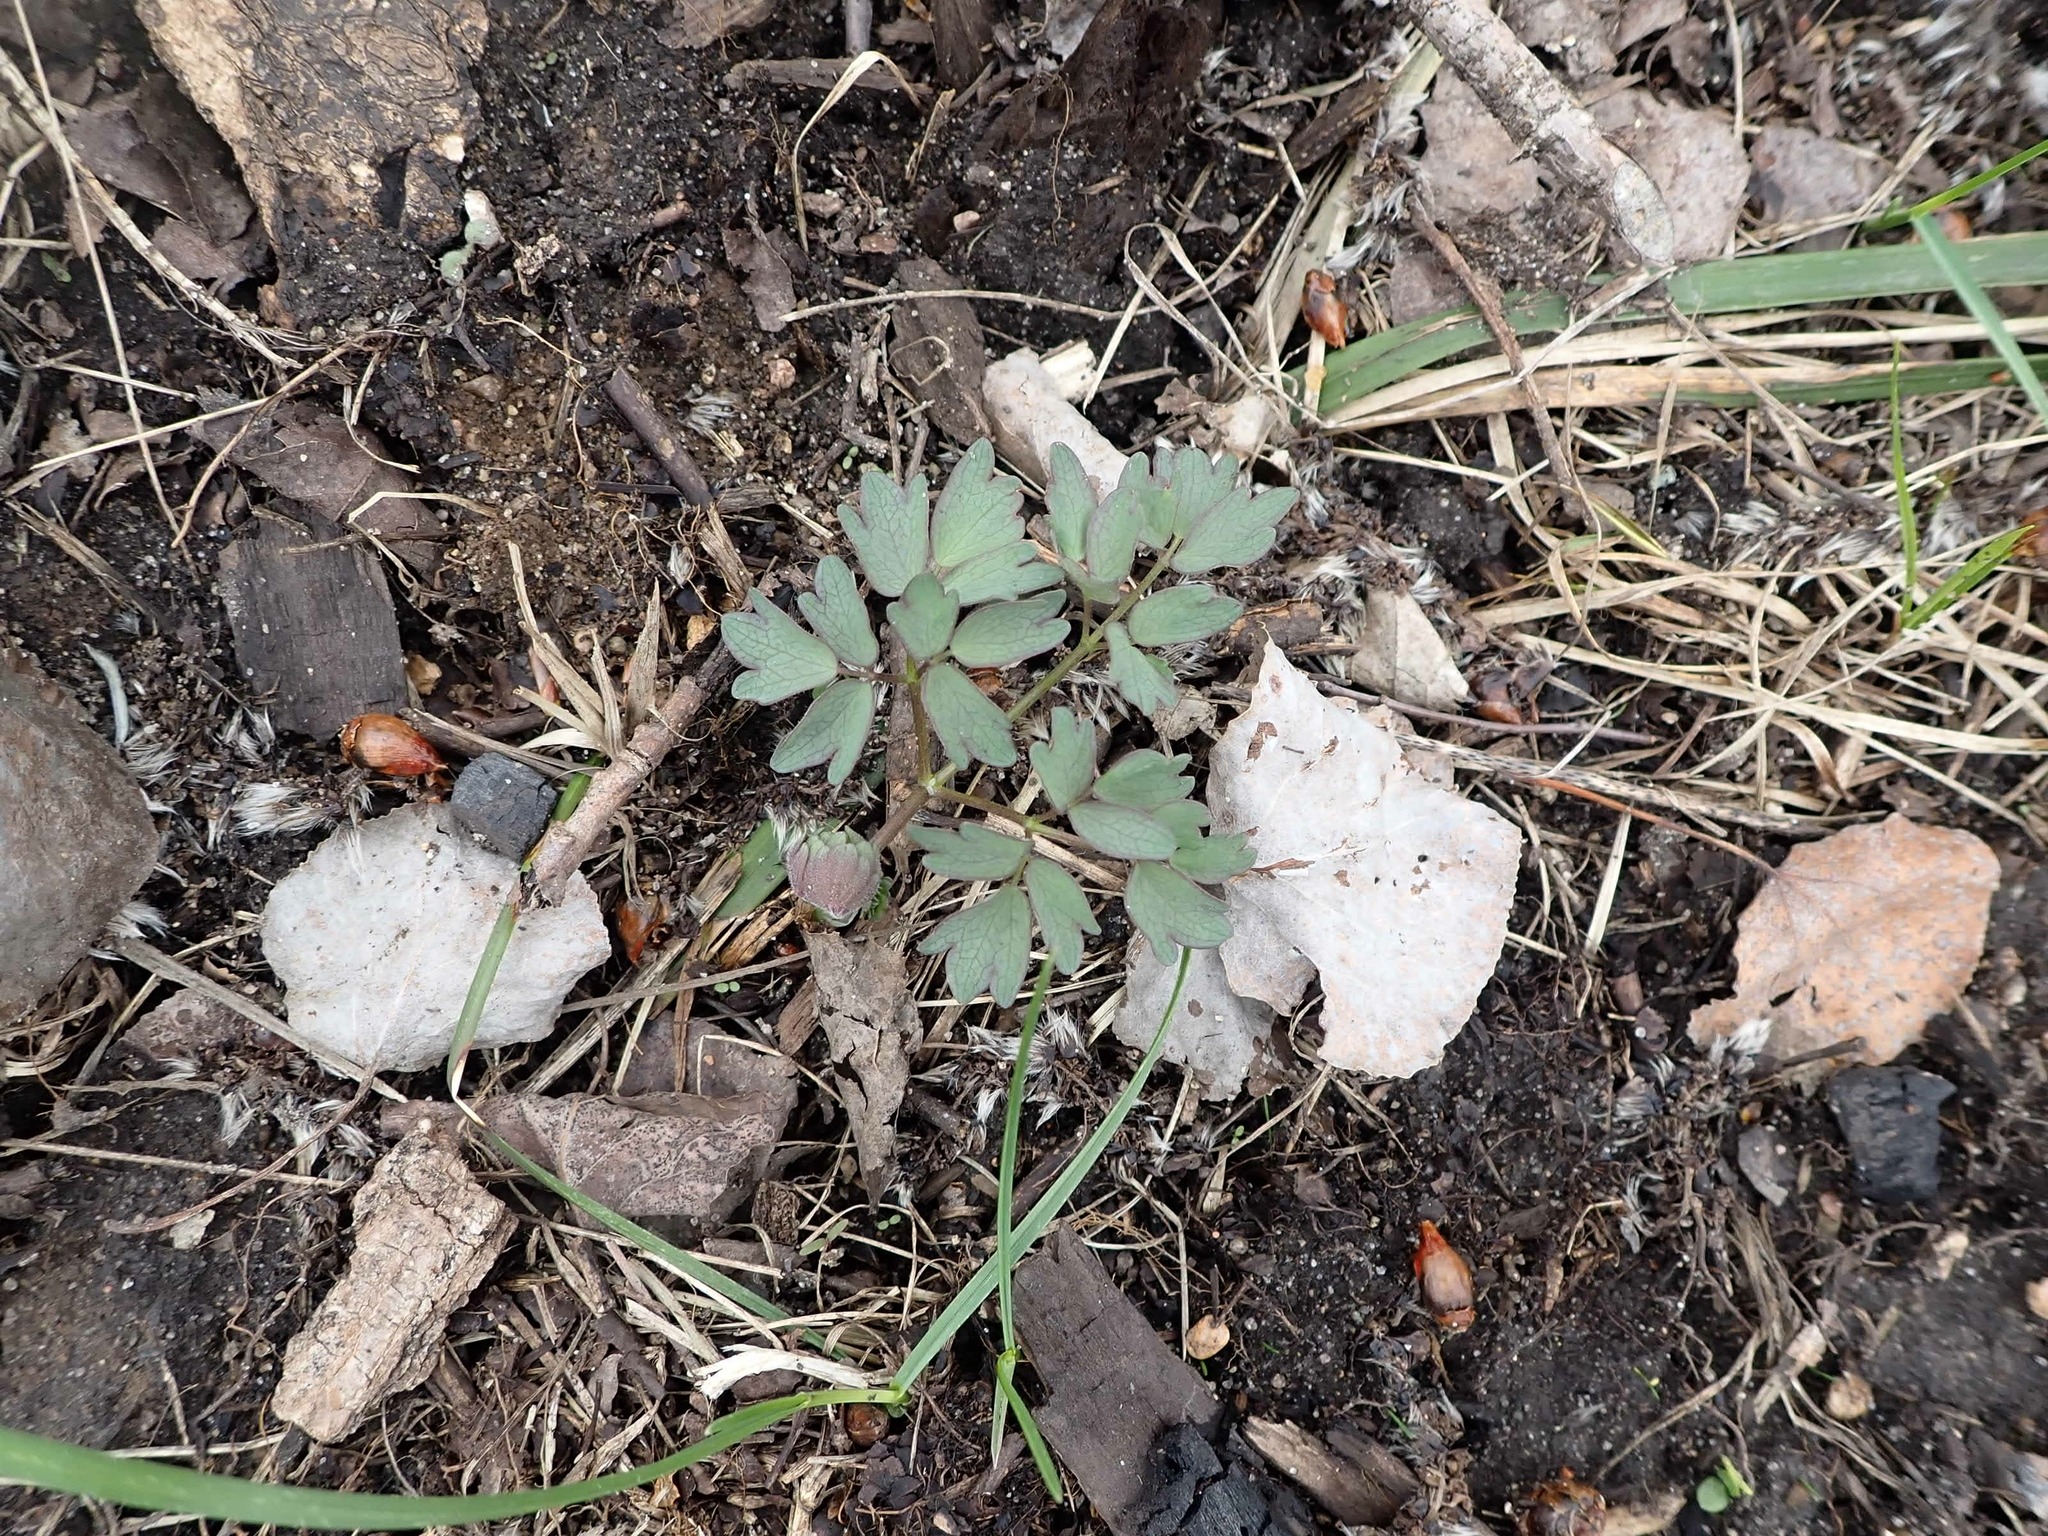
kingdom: Plantae
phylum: Tracheophyta
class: Magnoliopsida
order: Ranunculales
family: Ranunculaceae
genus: Thalictrum
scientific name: Thalictrum dasycarpum
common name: Purple meadow-rue
